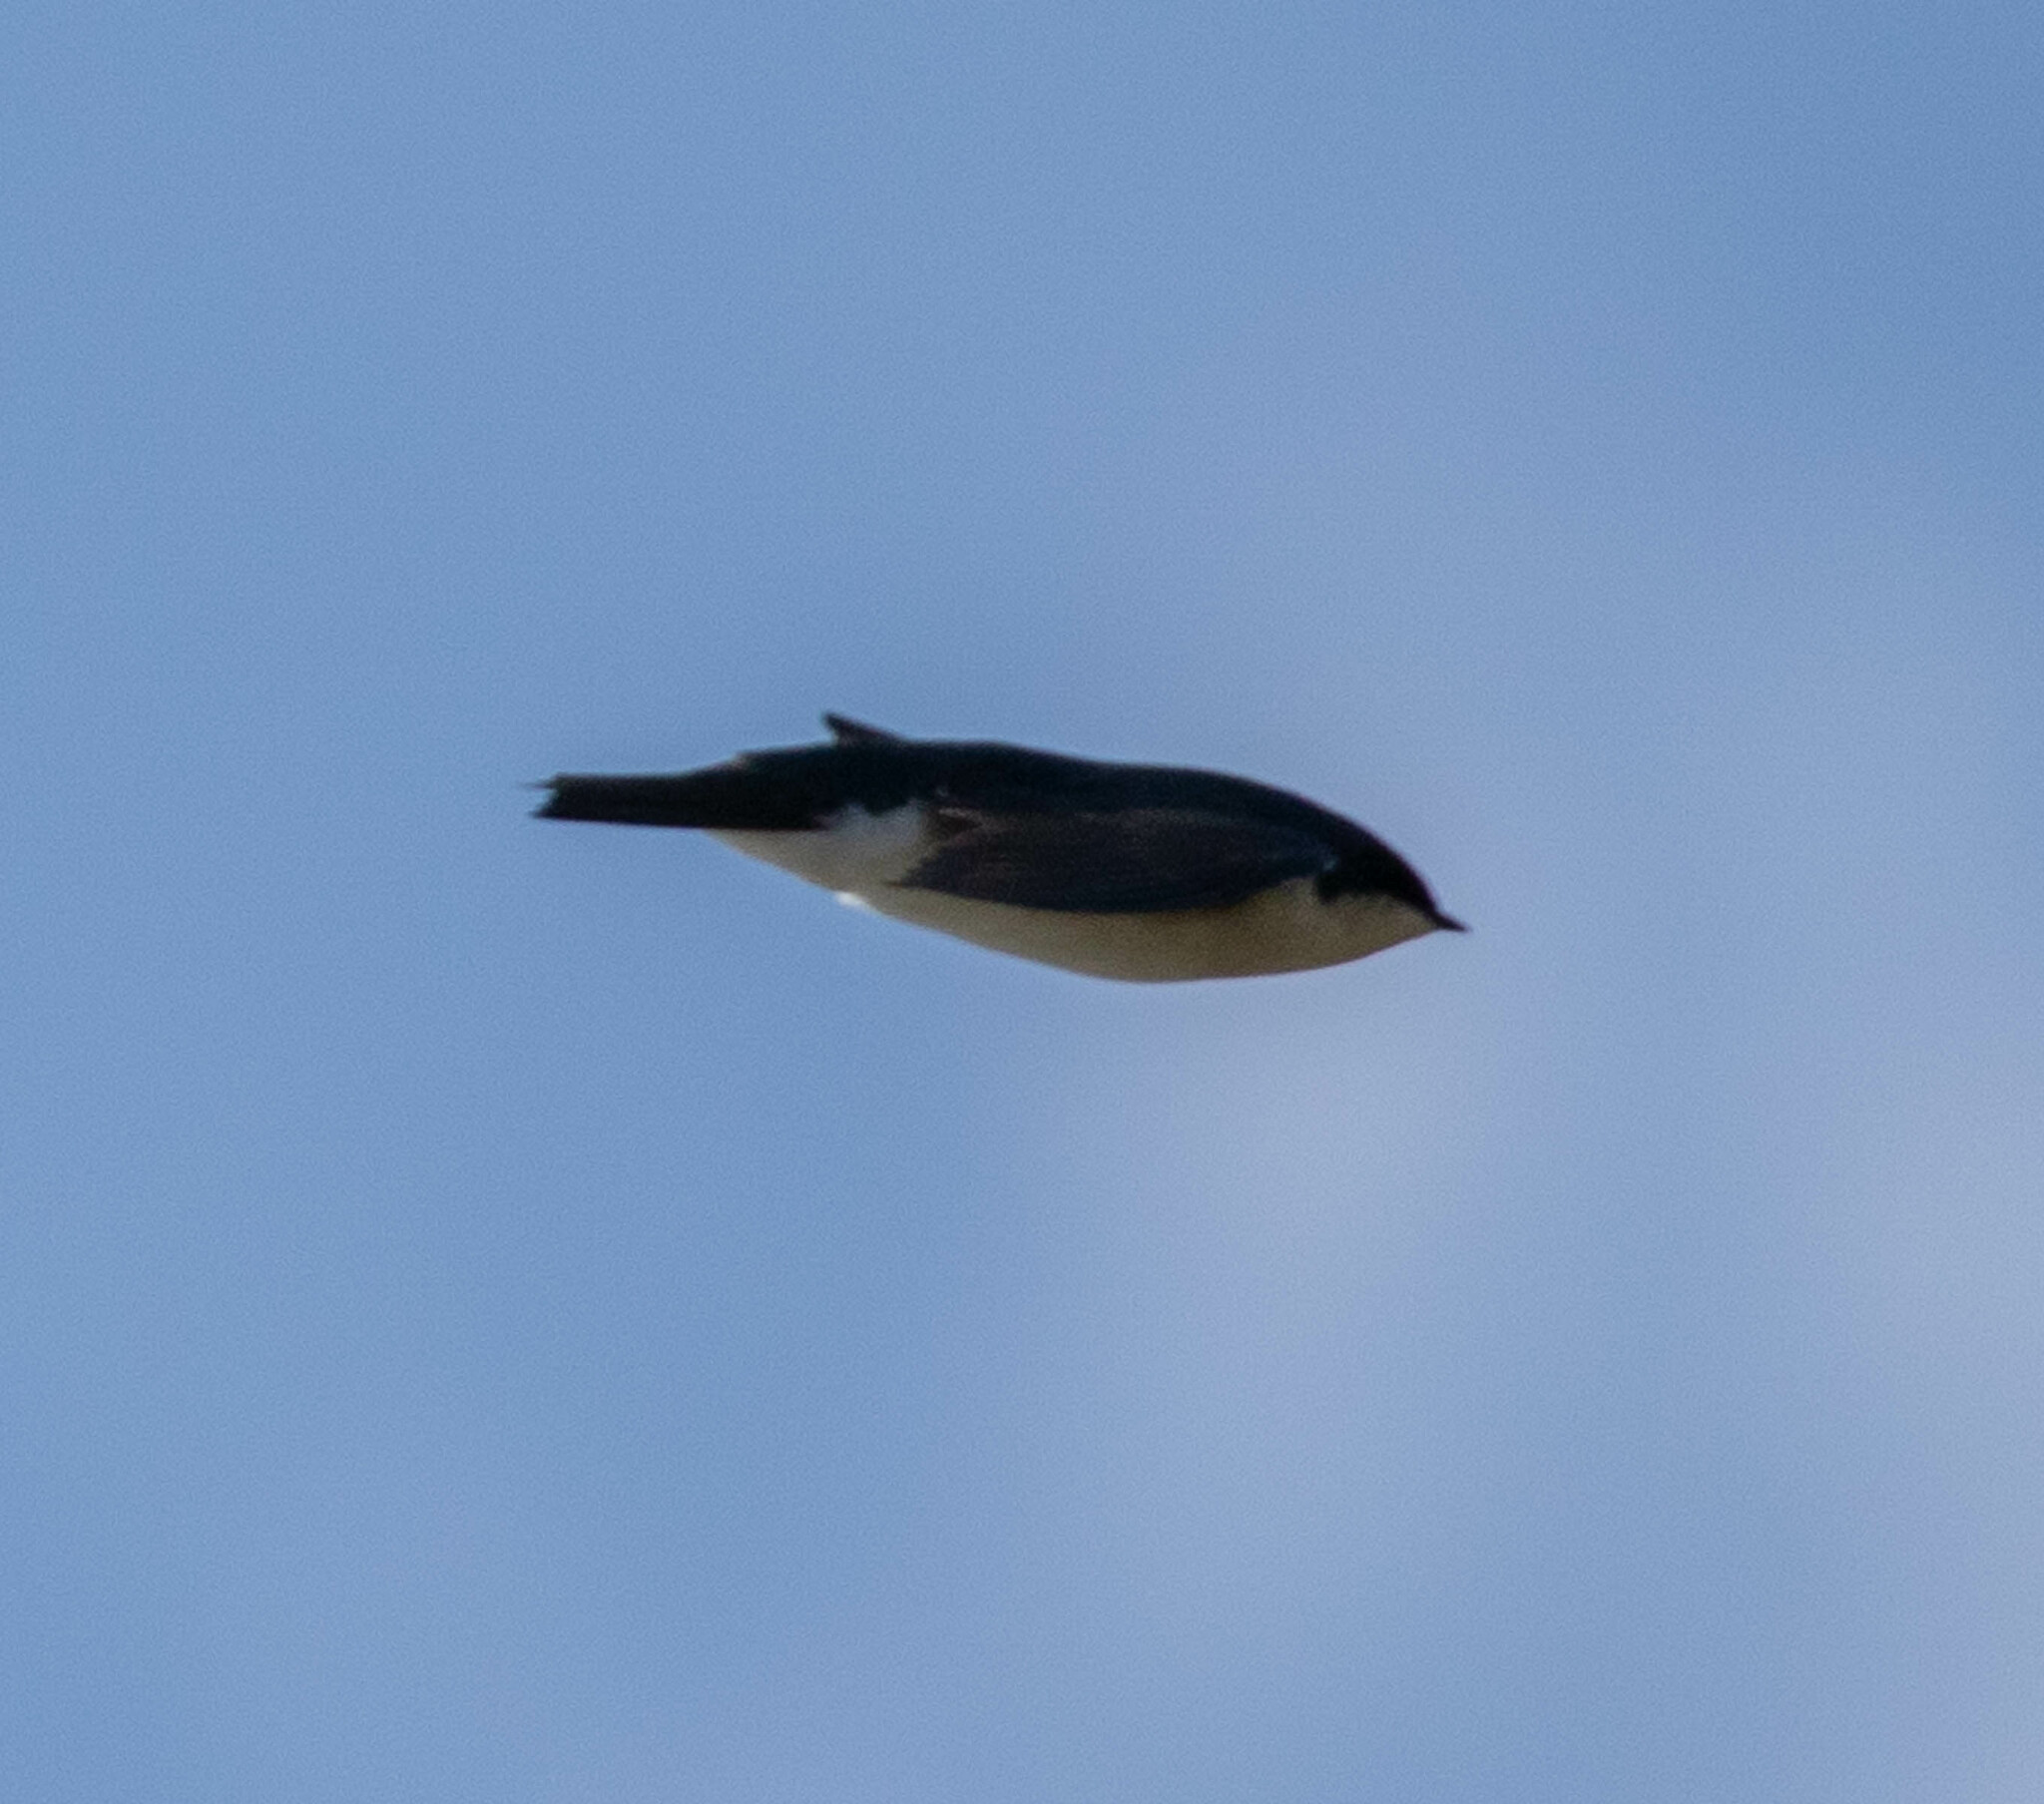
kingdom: Animalia
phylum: Chordata
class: Aves
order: Passeriformes
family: Hirundinidae
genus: Tachycineta
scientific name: Tachycineta bicolor
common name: Tree swallow
